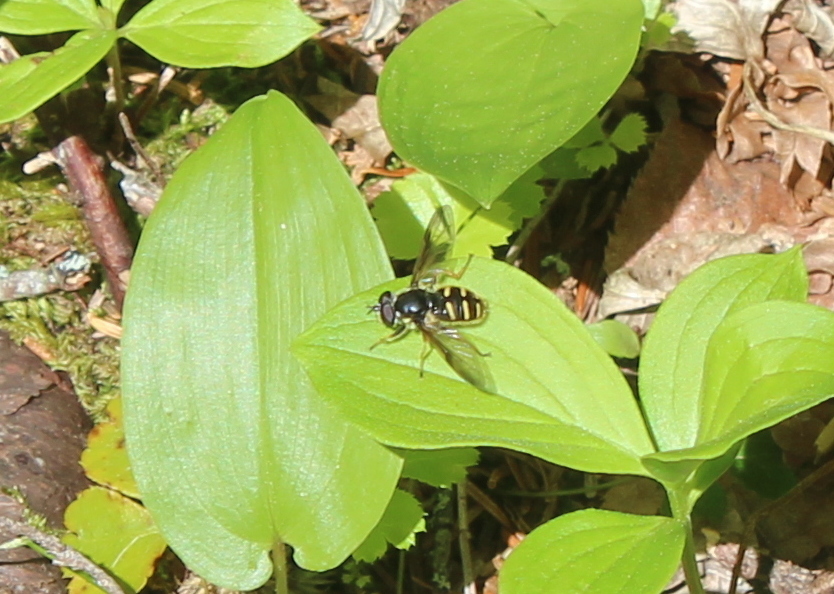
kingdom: Animalia
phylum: Arthropoda
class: Insecta
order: Diptera
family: Syrphidae
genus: Sericomyia
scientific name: Sericomyia chrysotoxoides
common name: Oblique-banded pond fly
